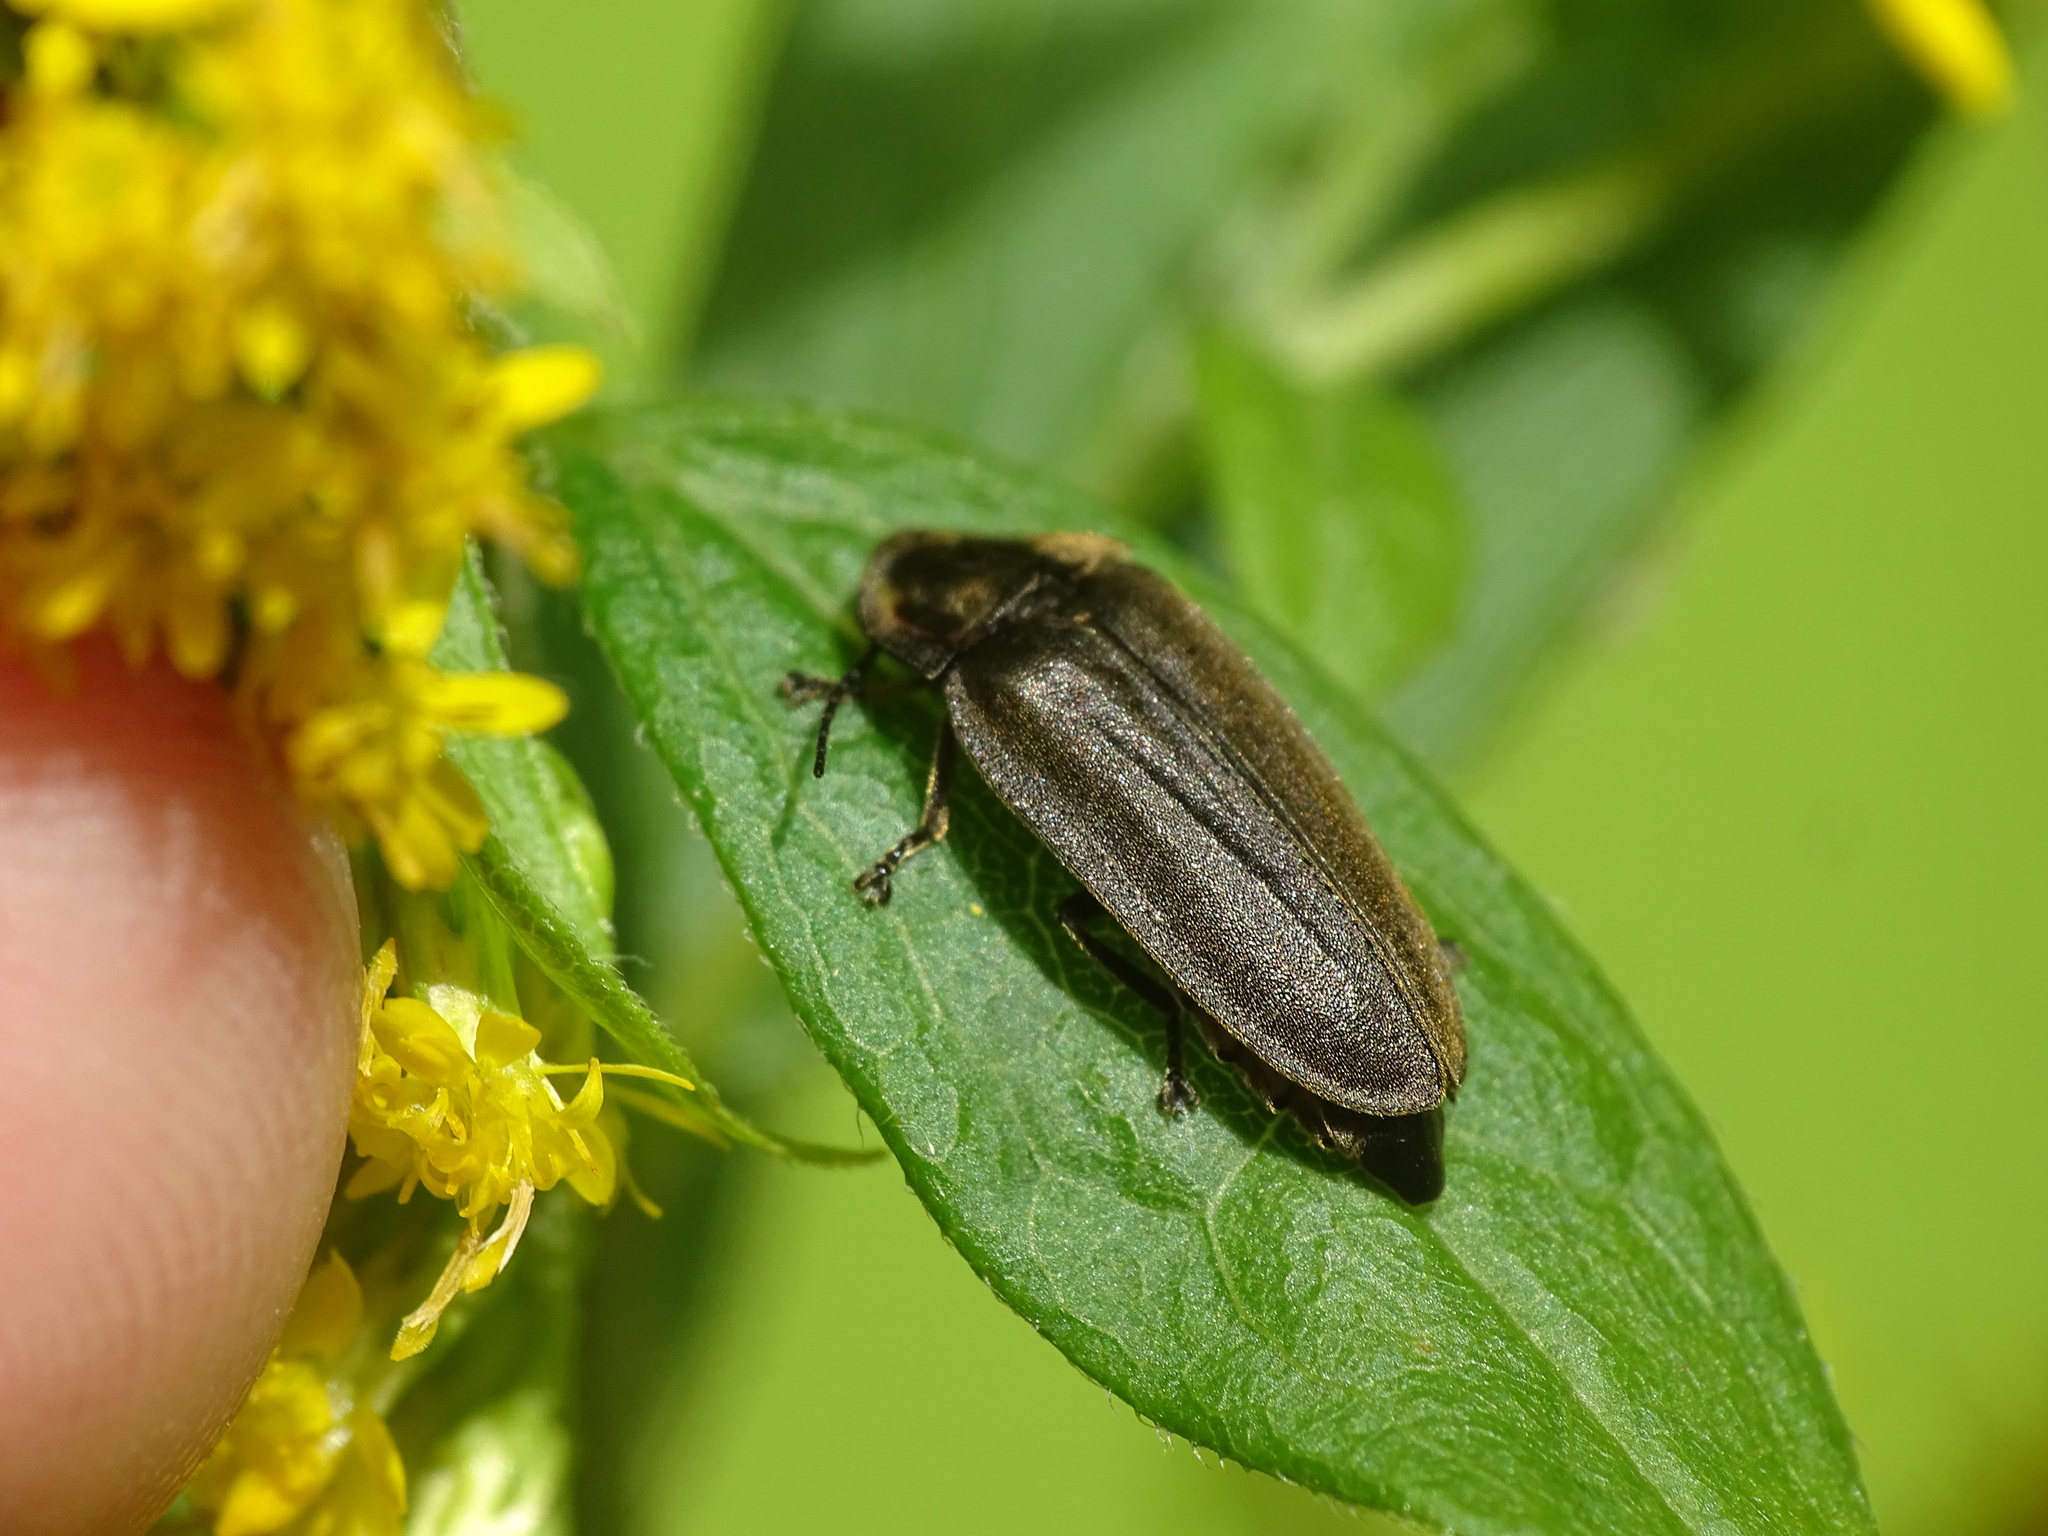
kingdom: Animalia
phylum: Arthropoda
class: Insecta
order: Coleoptera
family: Lampyridae
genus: Photinus
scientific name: Photinus corrusca
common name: Winter firefly
